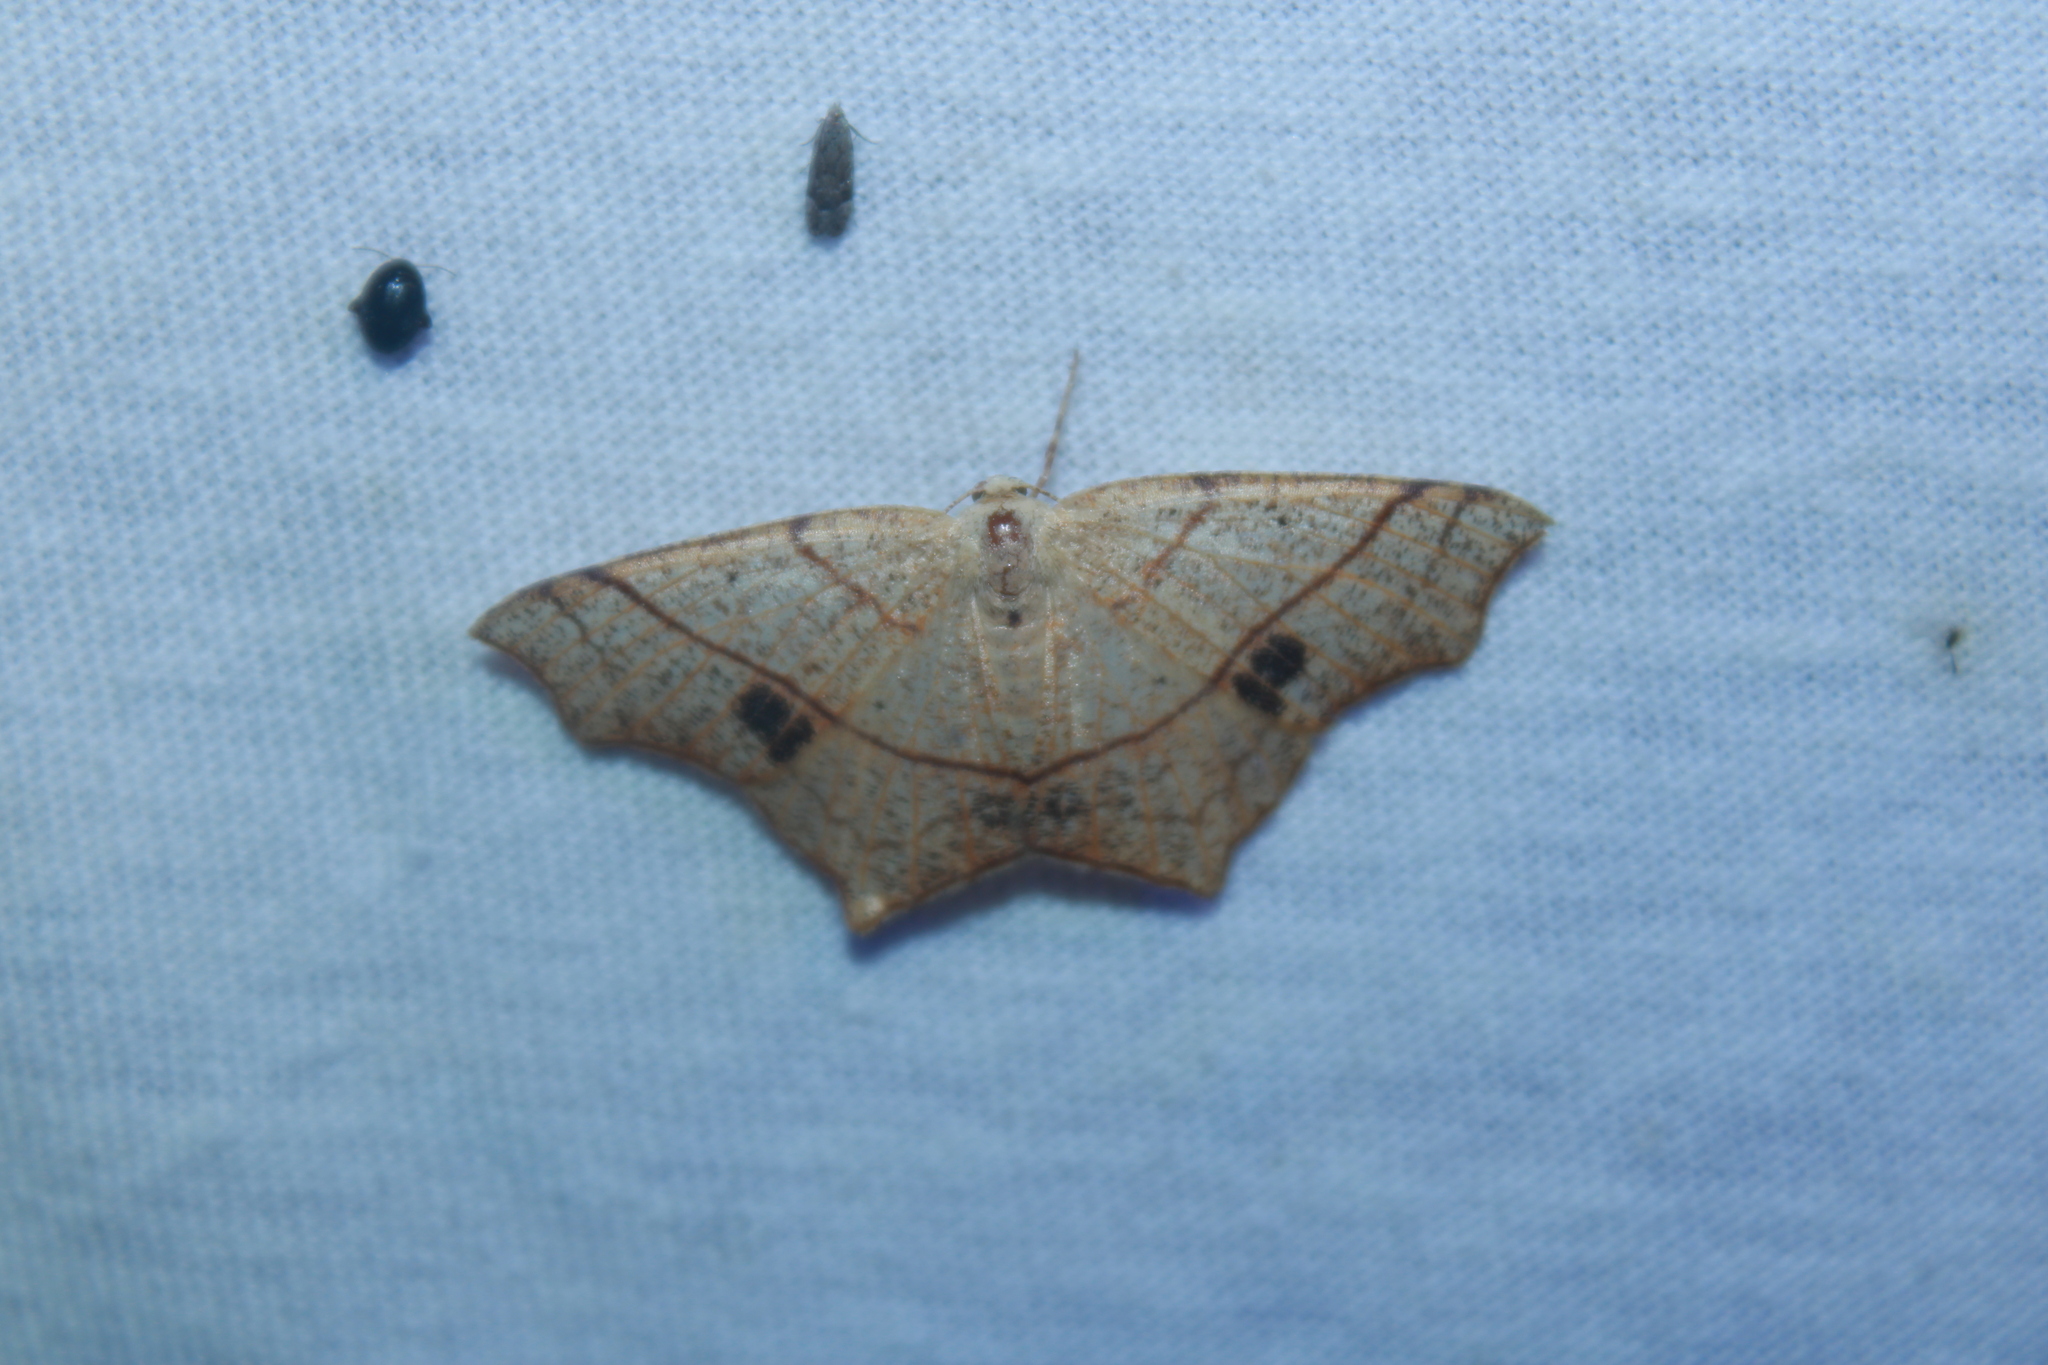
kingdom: Animalia
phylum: Arthropoda
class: Insecta
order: Lepidoptera
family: Geometridae
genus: Besma
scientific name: Besma quercivoraria
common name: Oak besma
